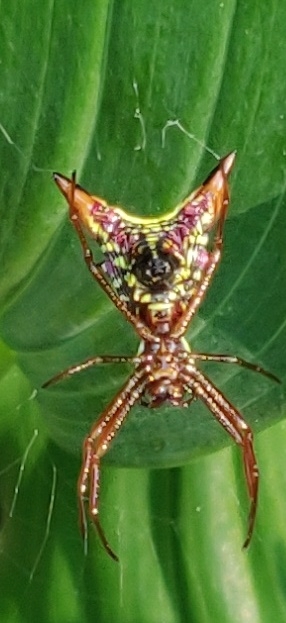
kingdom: Animalia
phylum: Arthropoda
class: Arachnida
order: Araneae
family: Araneidae
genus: Micrathena
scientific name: Micrathena sagittata
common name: Orb weavers
